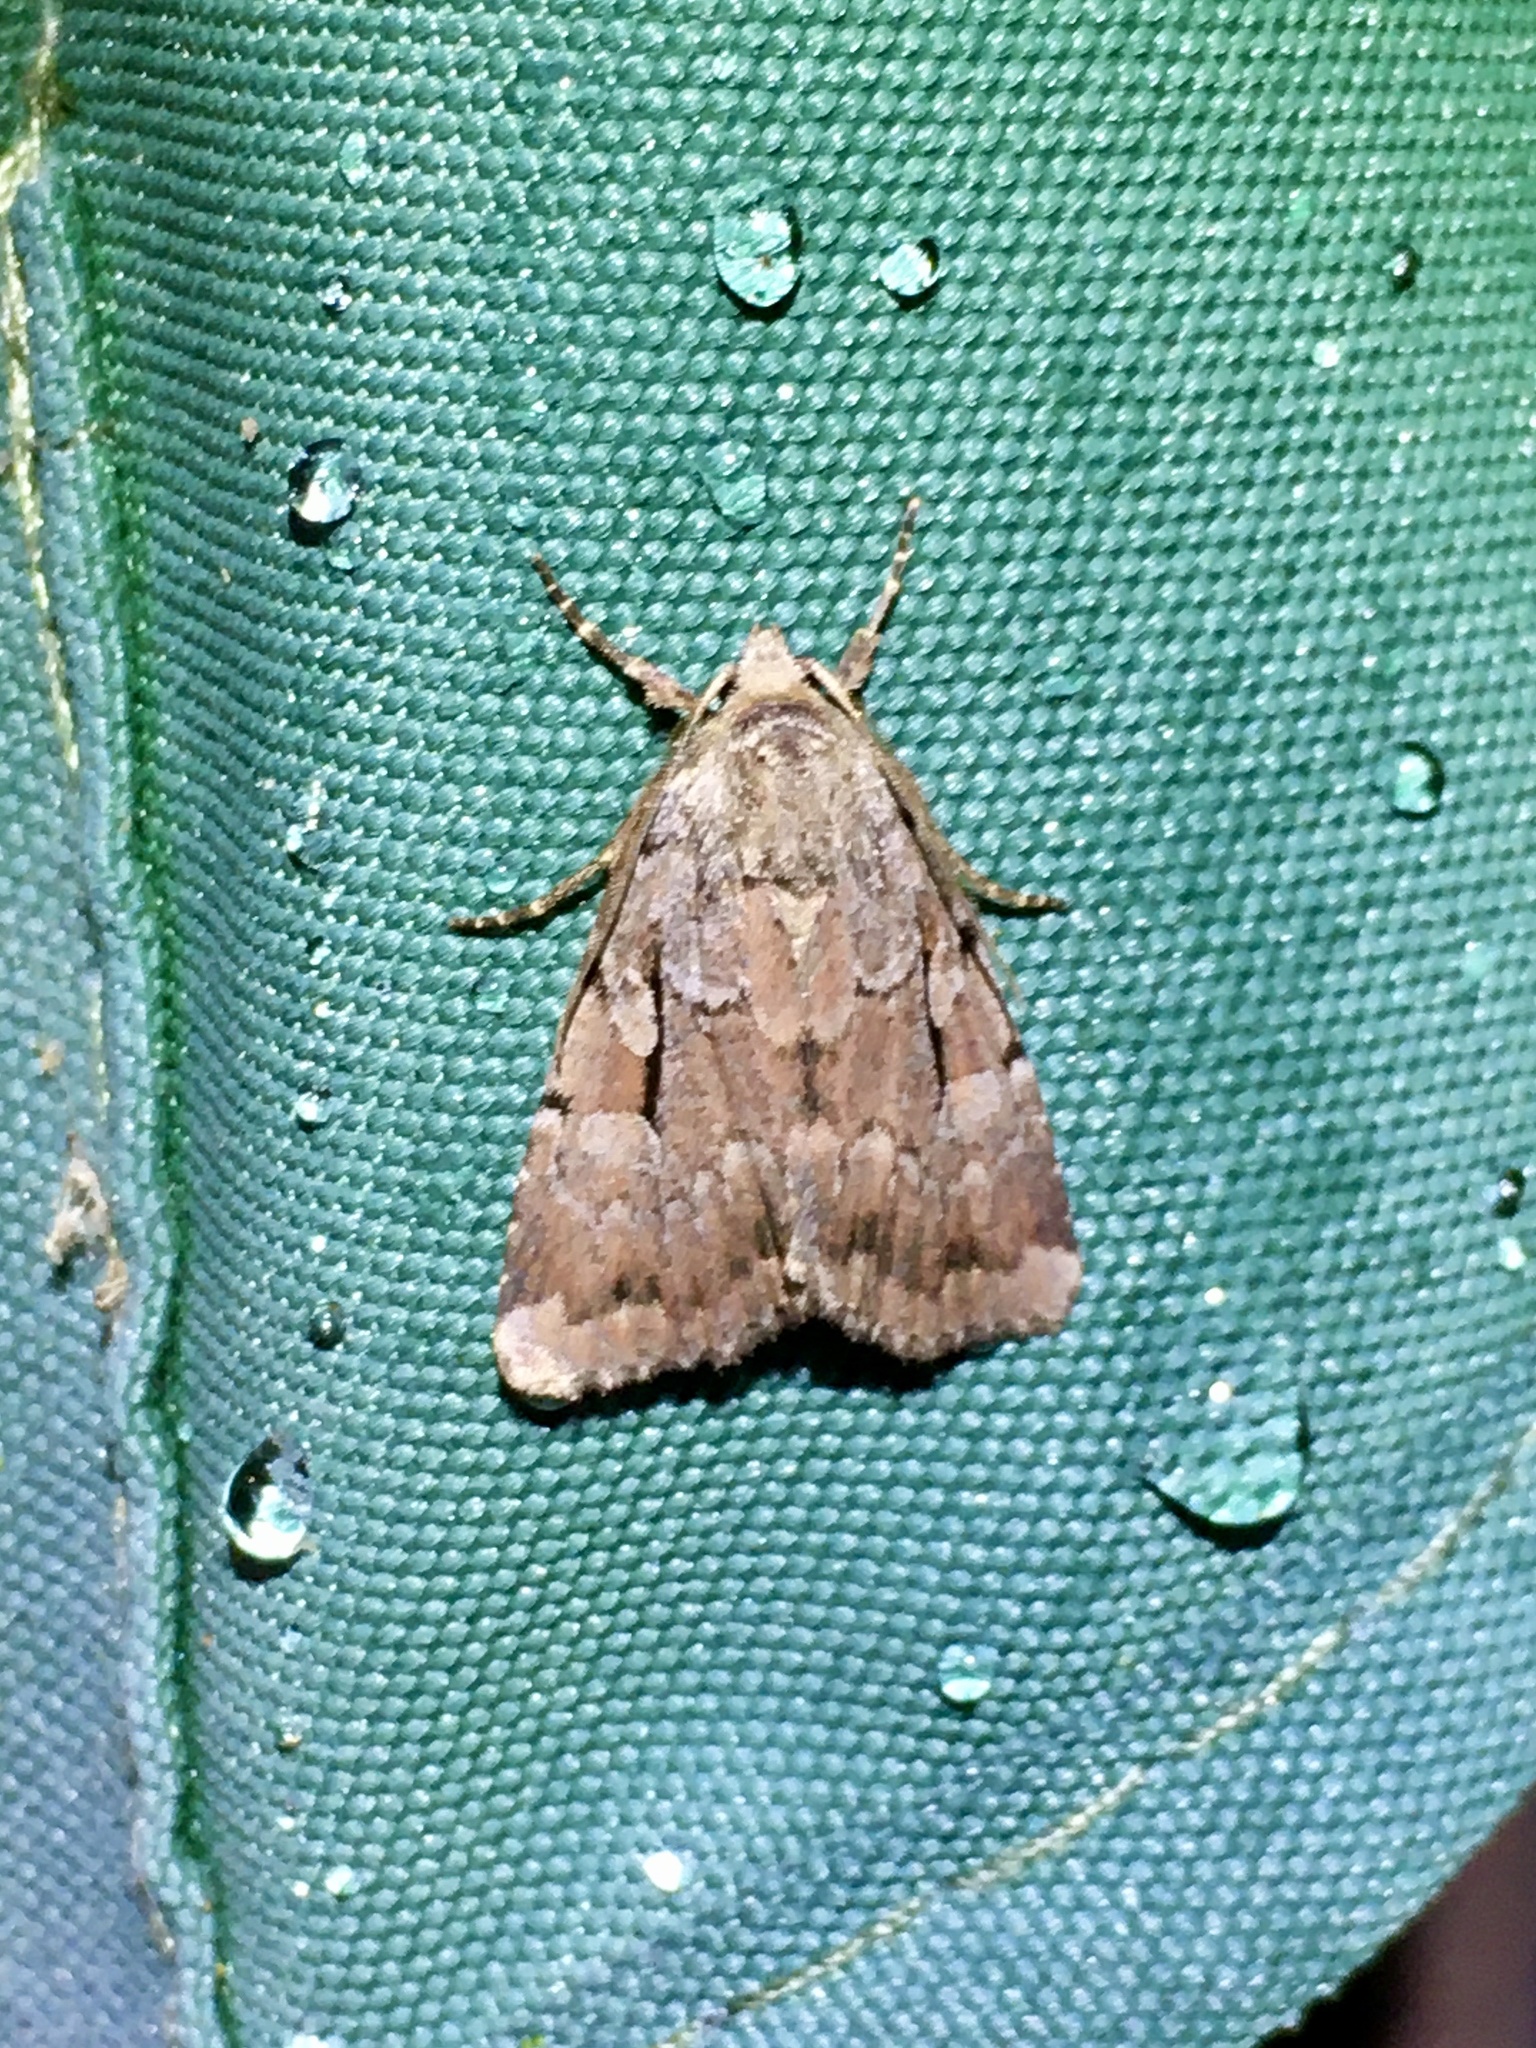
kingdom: Animalia
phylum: Arthropoda
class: Insecta
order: Lepidoptera
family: Noctuidae
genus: Xestia
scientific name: Xestia badicollis
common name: Northern variable dart
